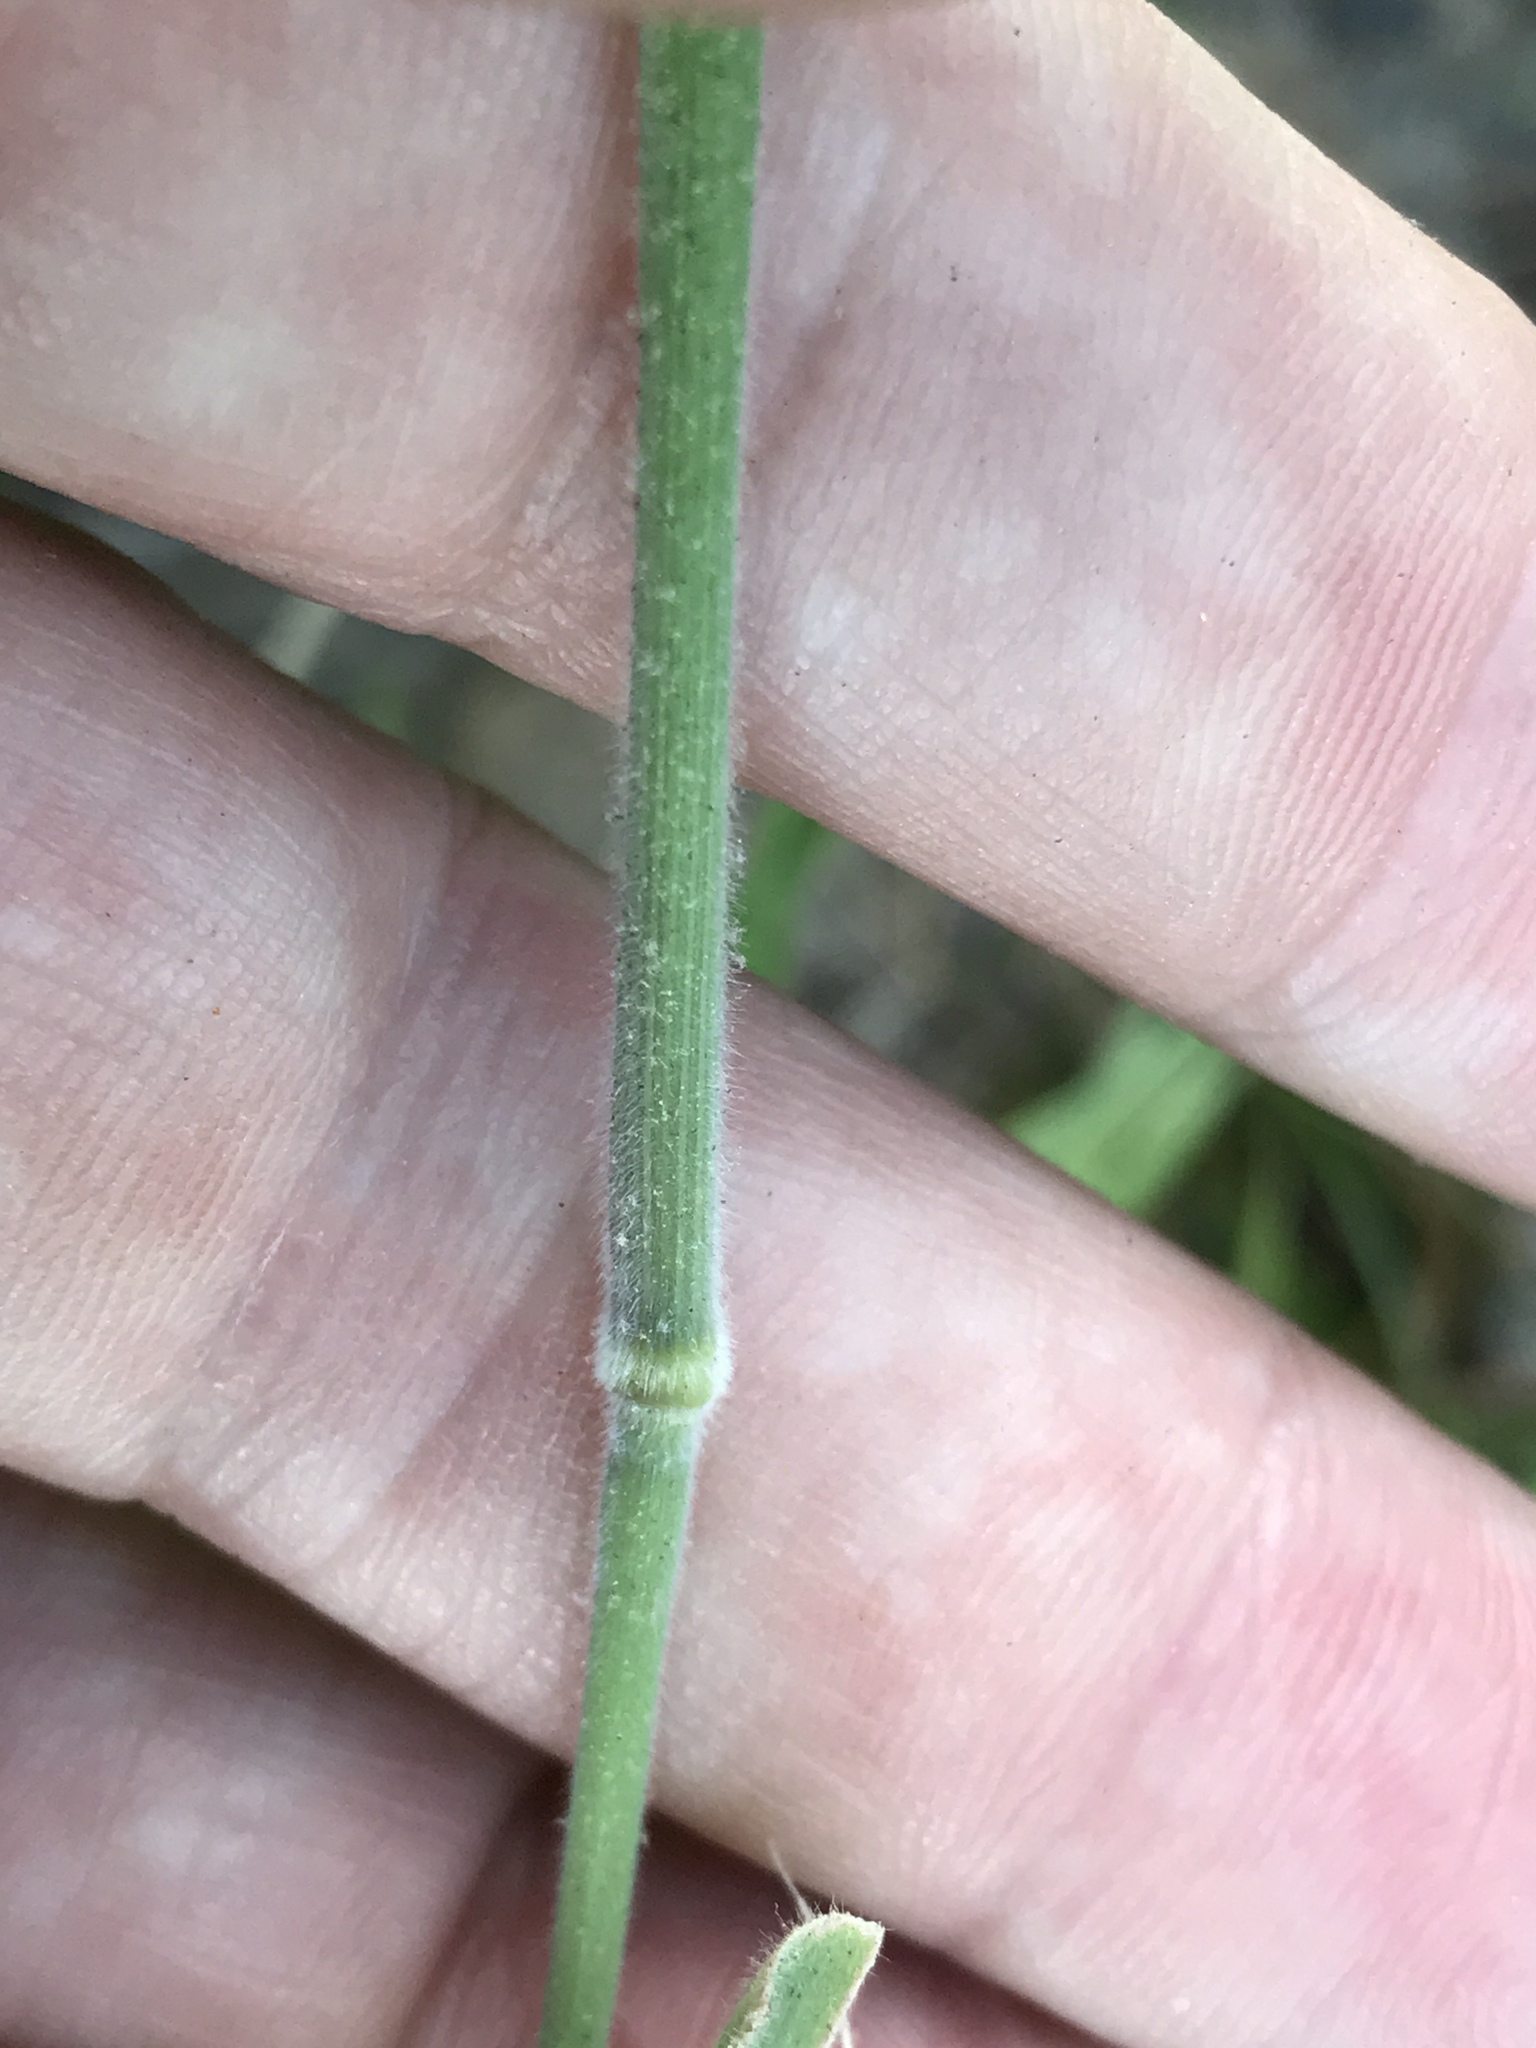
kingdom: Plantae
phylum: Tracheophyta
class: Liliopsida
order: Poales
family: Poaceae
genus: Holcus
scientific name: Holcus lanatus
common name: Yorkshire-fog
